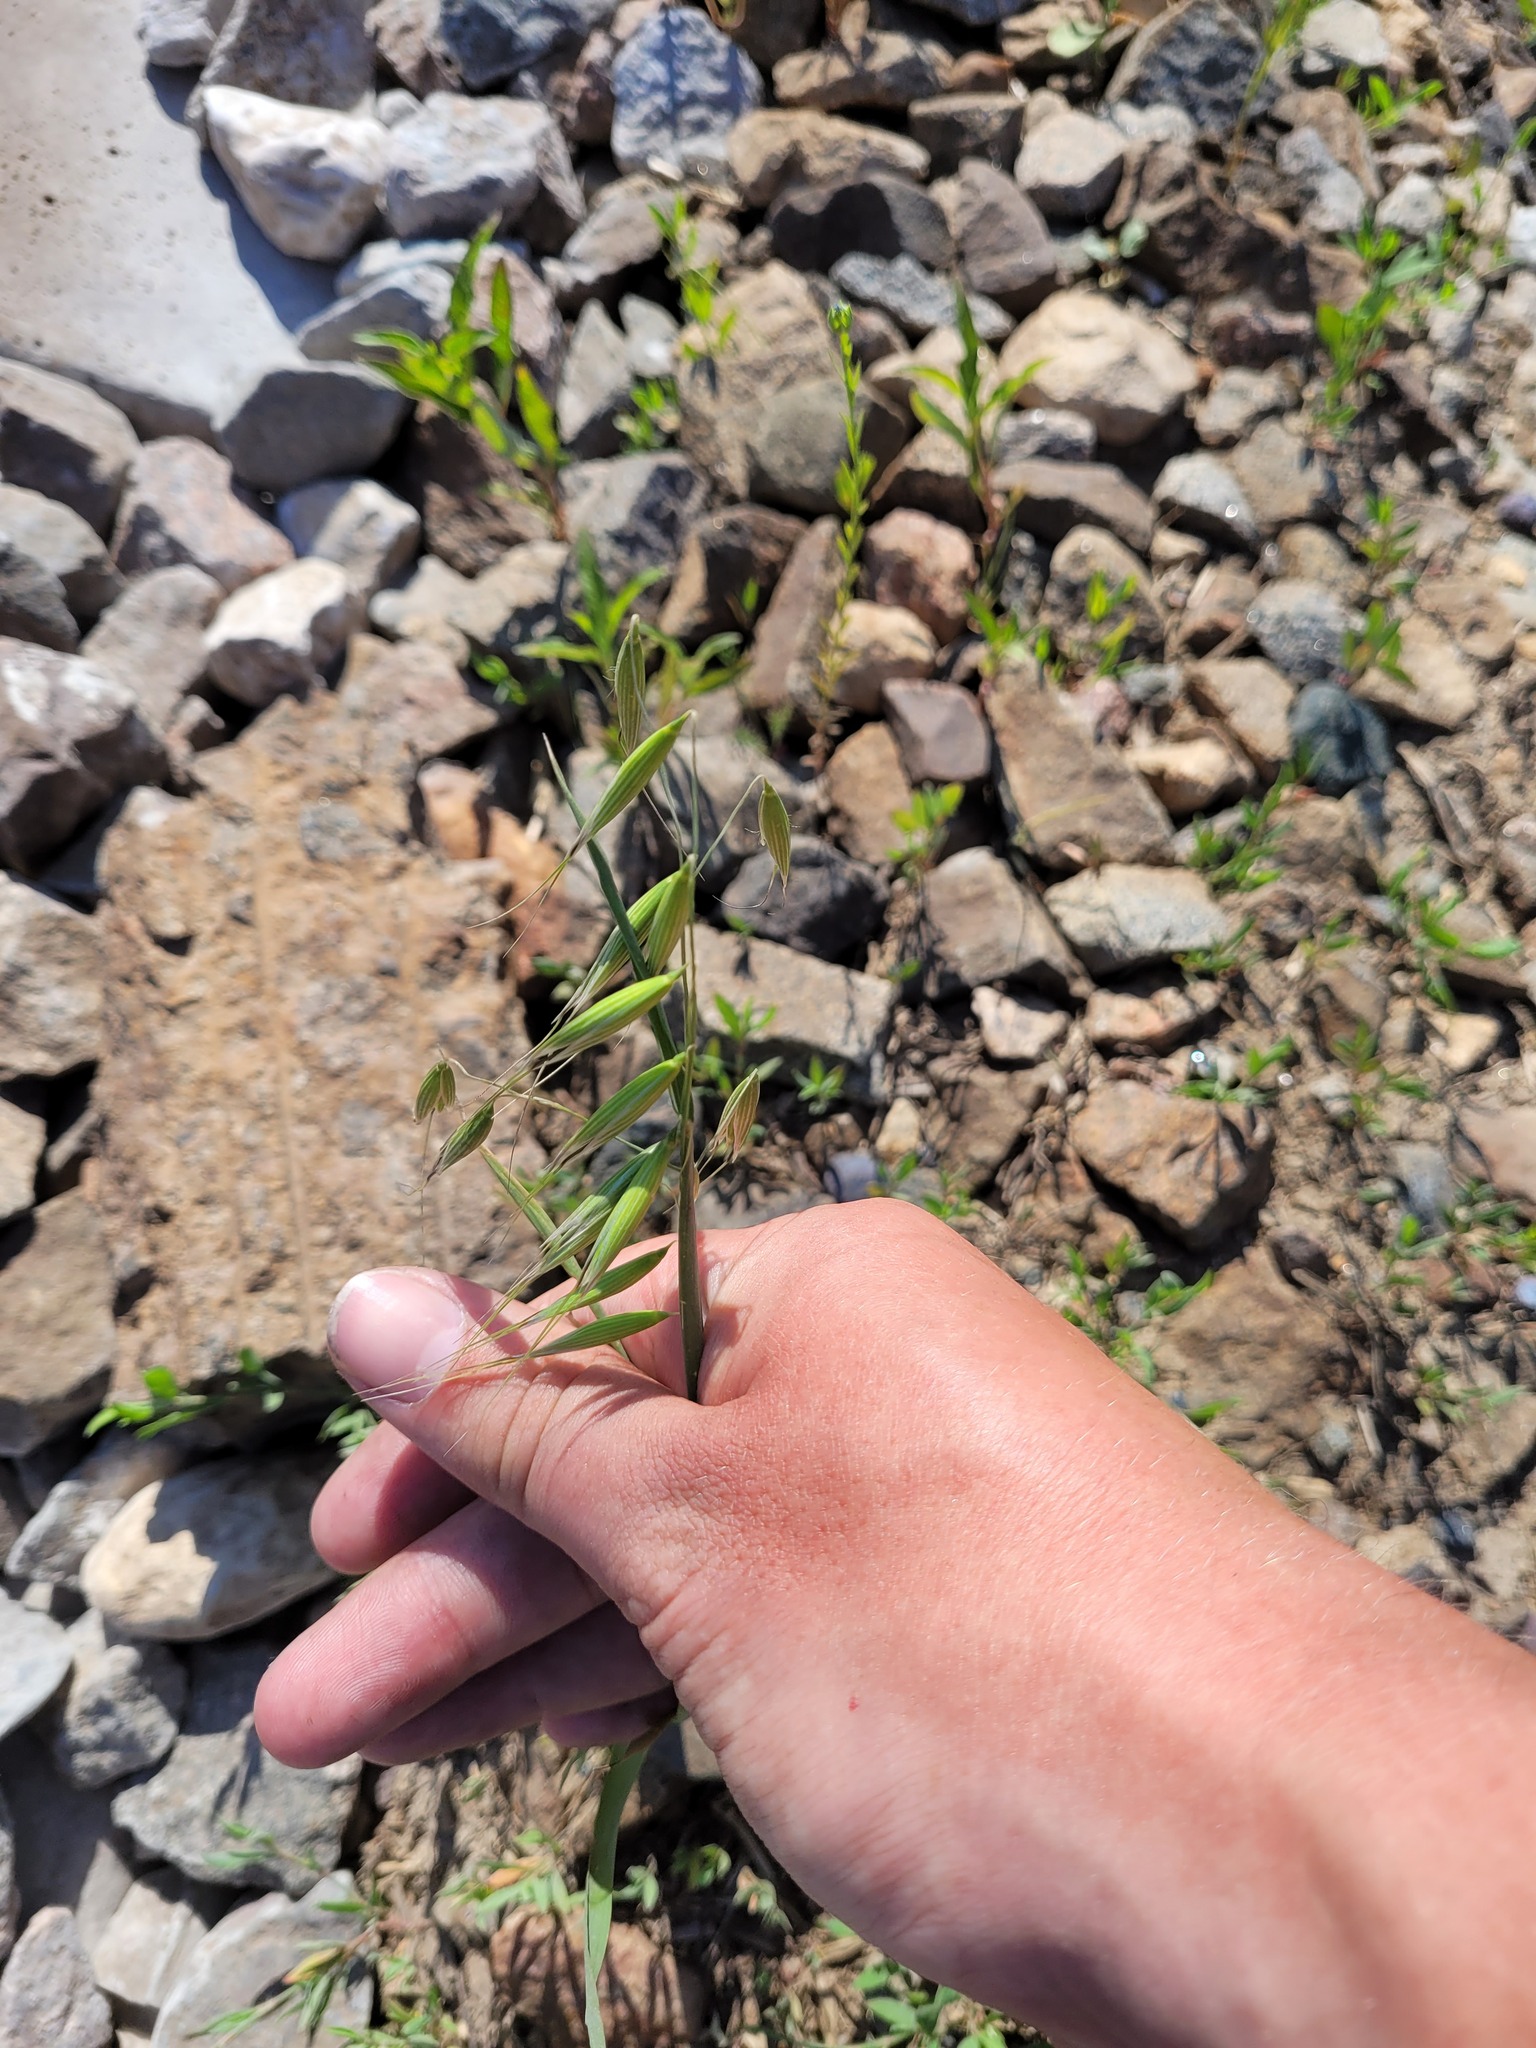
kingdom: Plantae
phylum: Tracheophyta
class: Liliopsida
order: Poales
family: Poaceae
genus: Avena
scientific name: Avena fatua
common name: Wild oat
